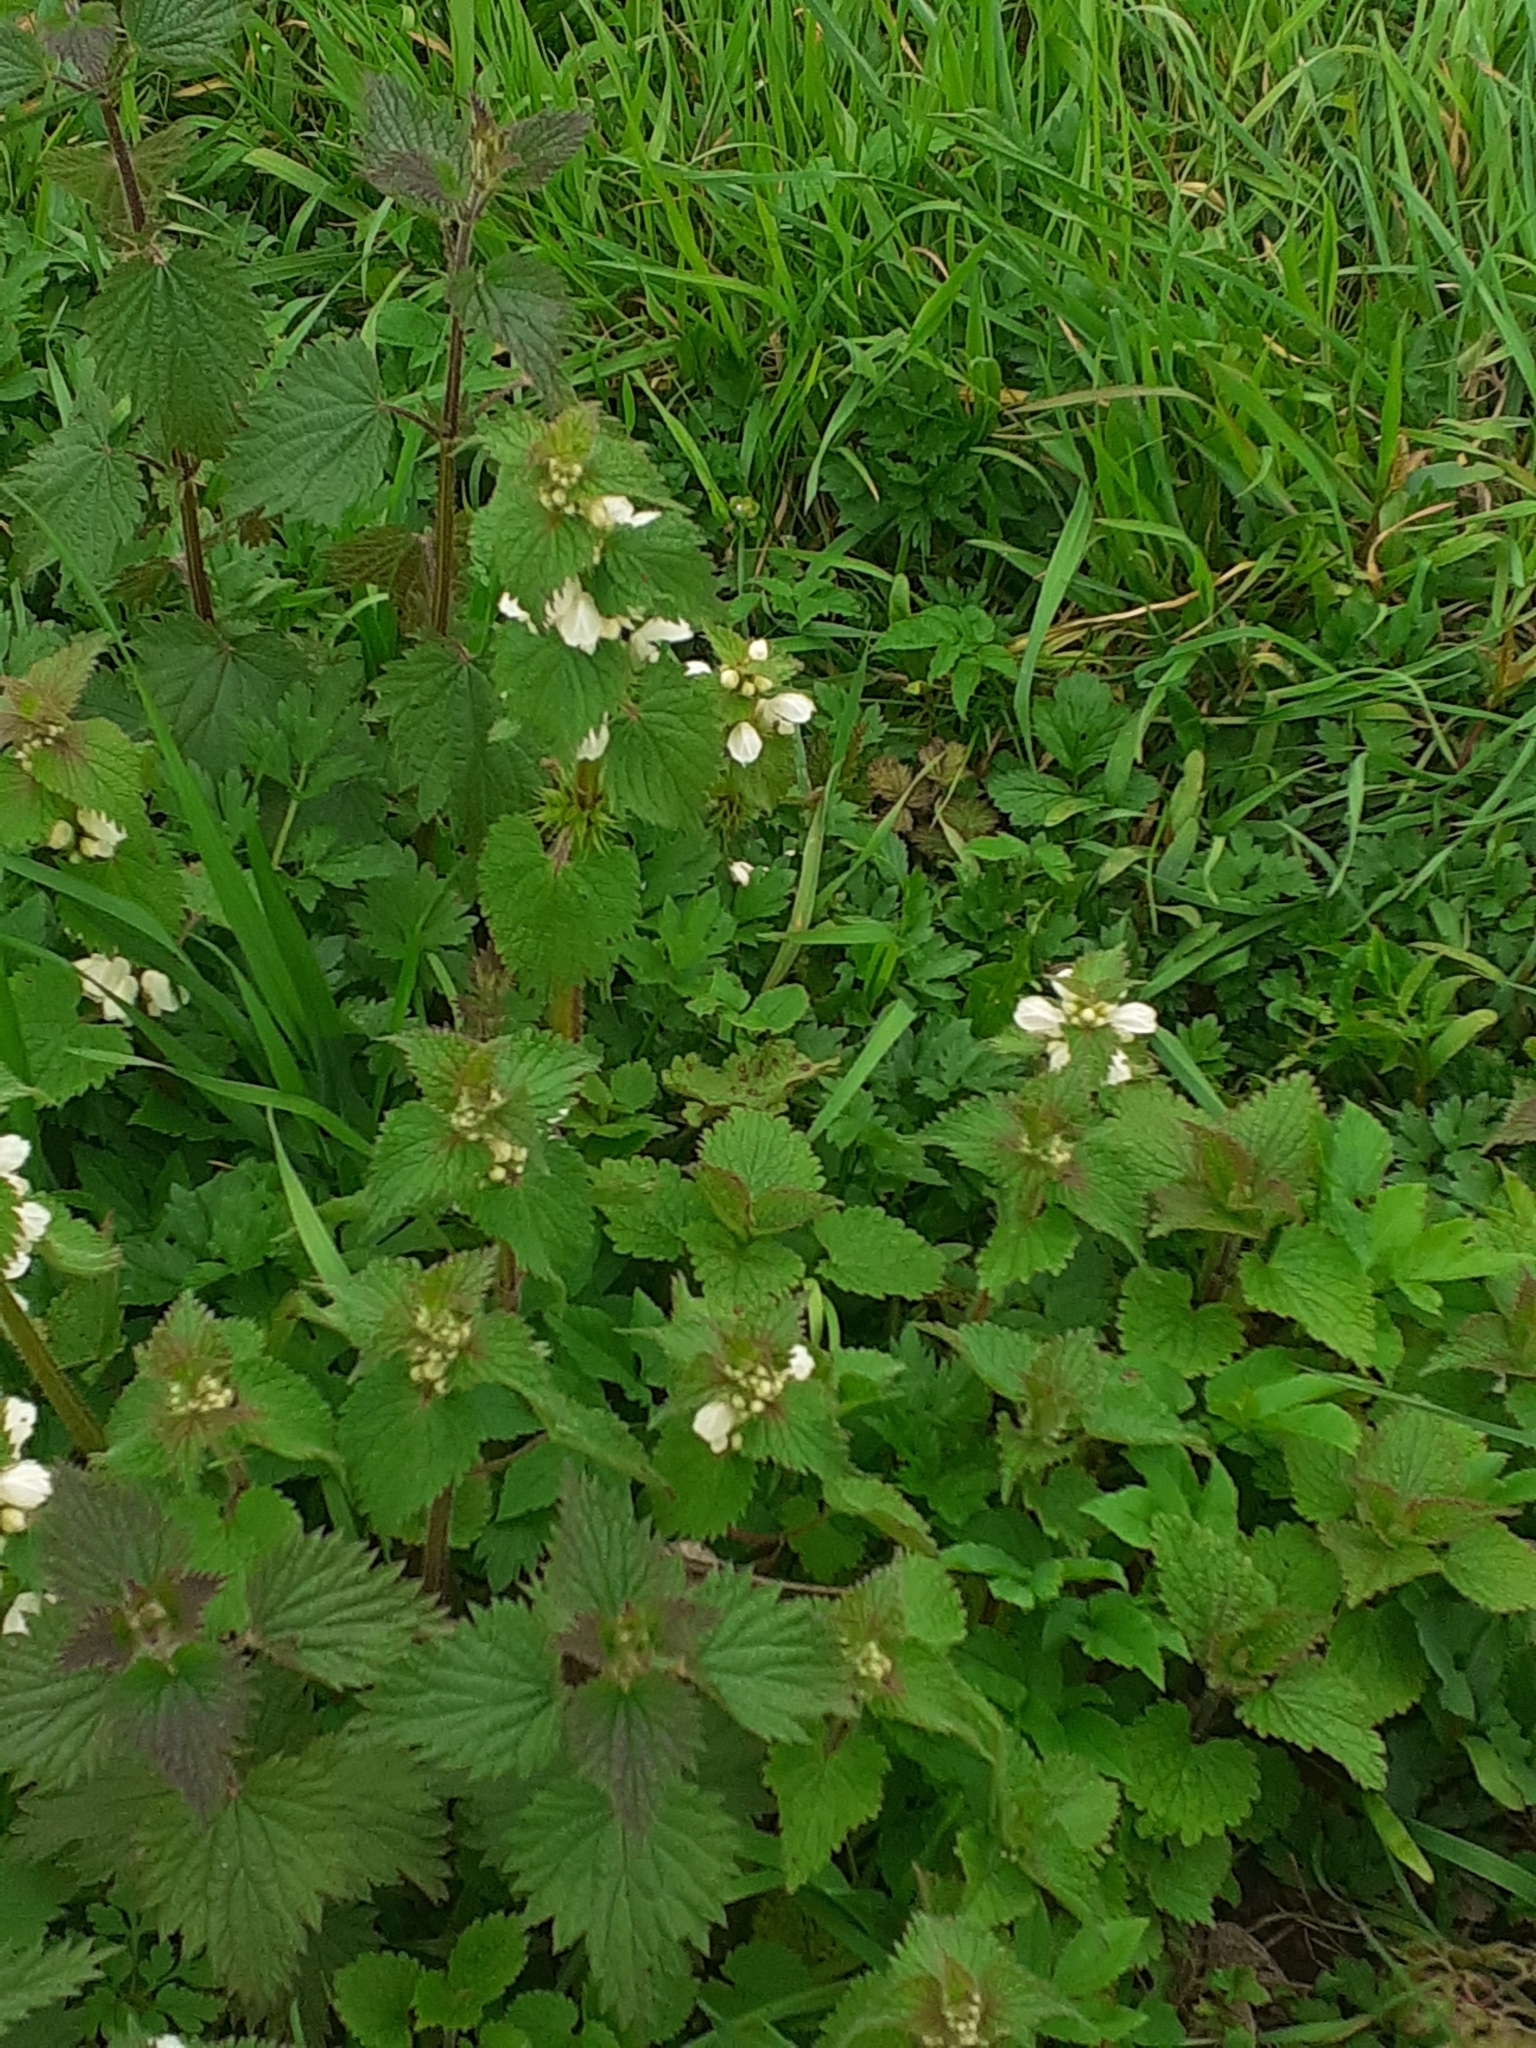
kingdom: Plantae
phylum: Tracheophyta
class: Magnoliopsida
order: Lamiales
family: Lamiaceae
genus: Lamium
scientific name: Lamium album
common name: White dead-nettle
